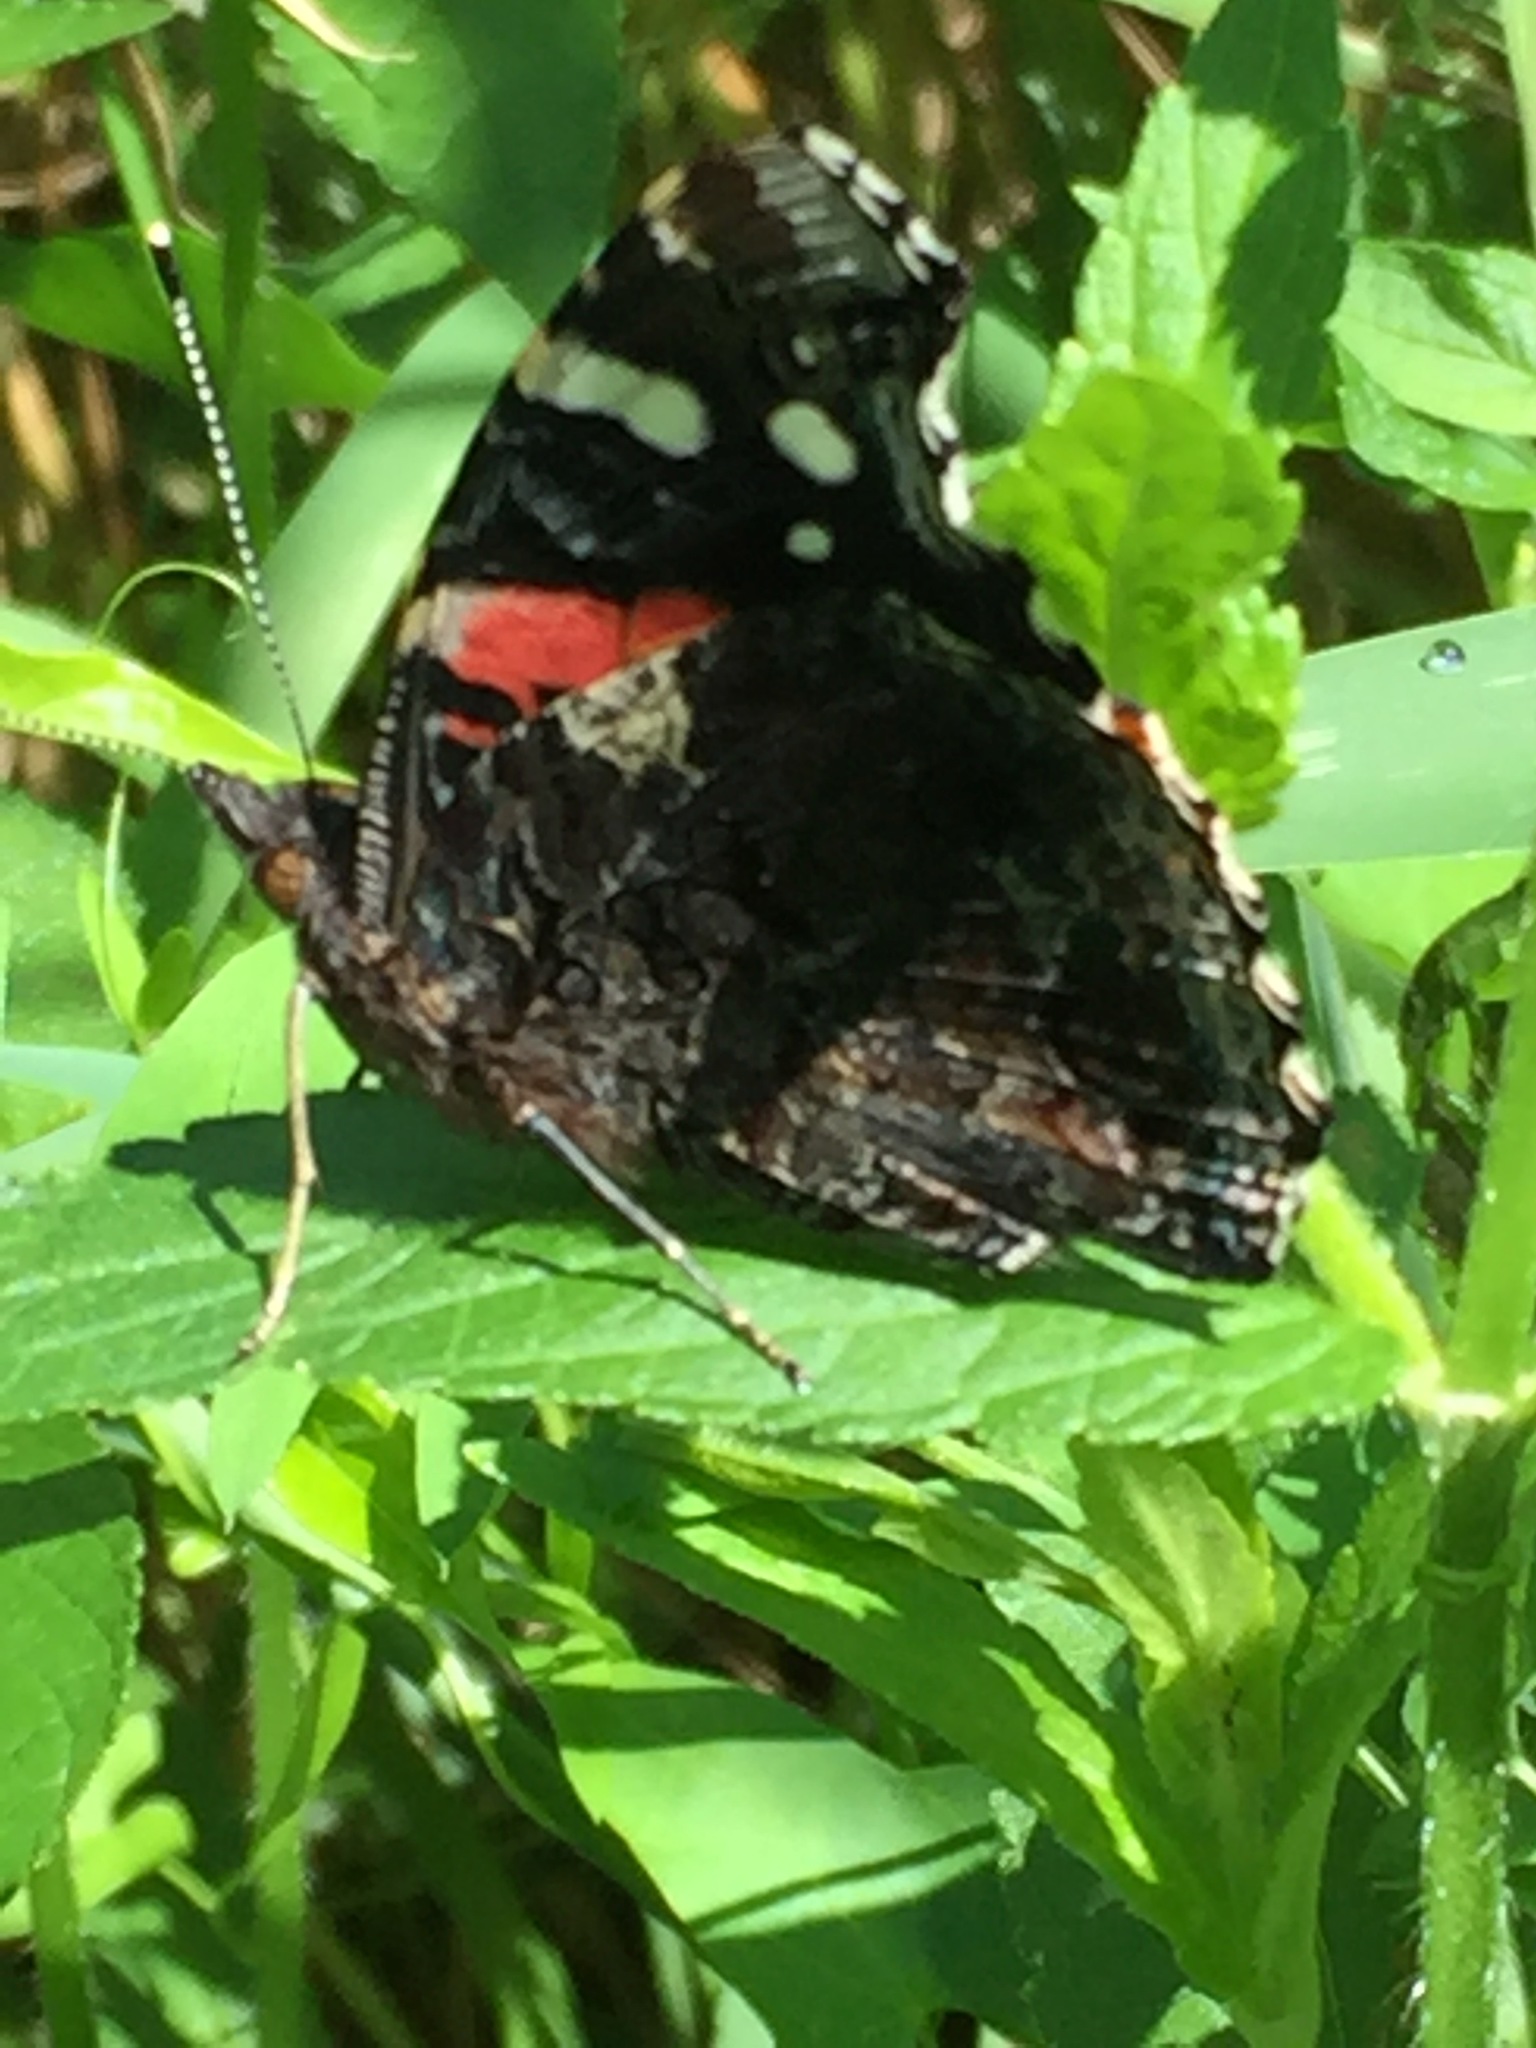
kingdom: Animalia
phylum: Arthropoda
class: Insecta
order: Lepidoptera
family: Nymphalidae
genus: Vanessa
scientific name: Vanessa atalanta
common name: Red admiral
